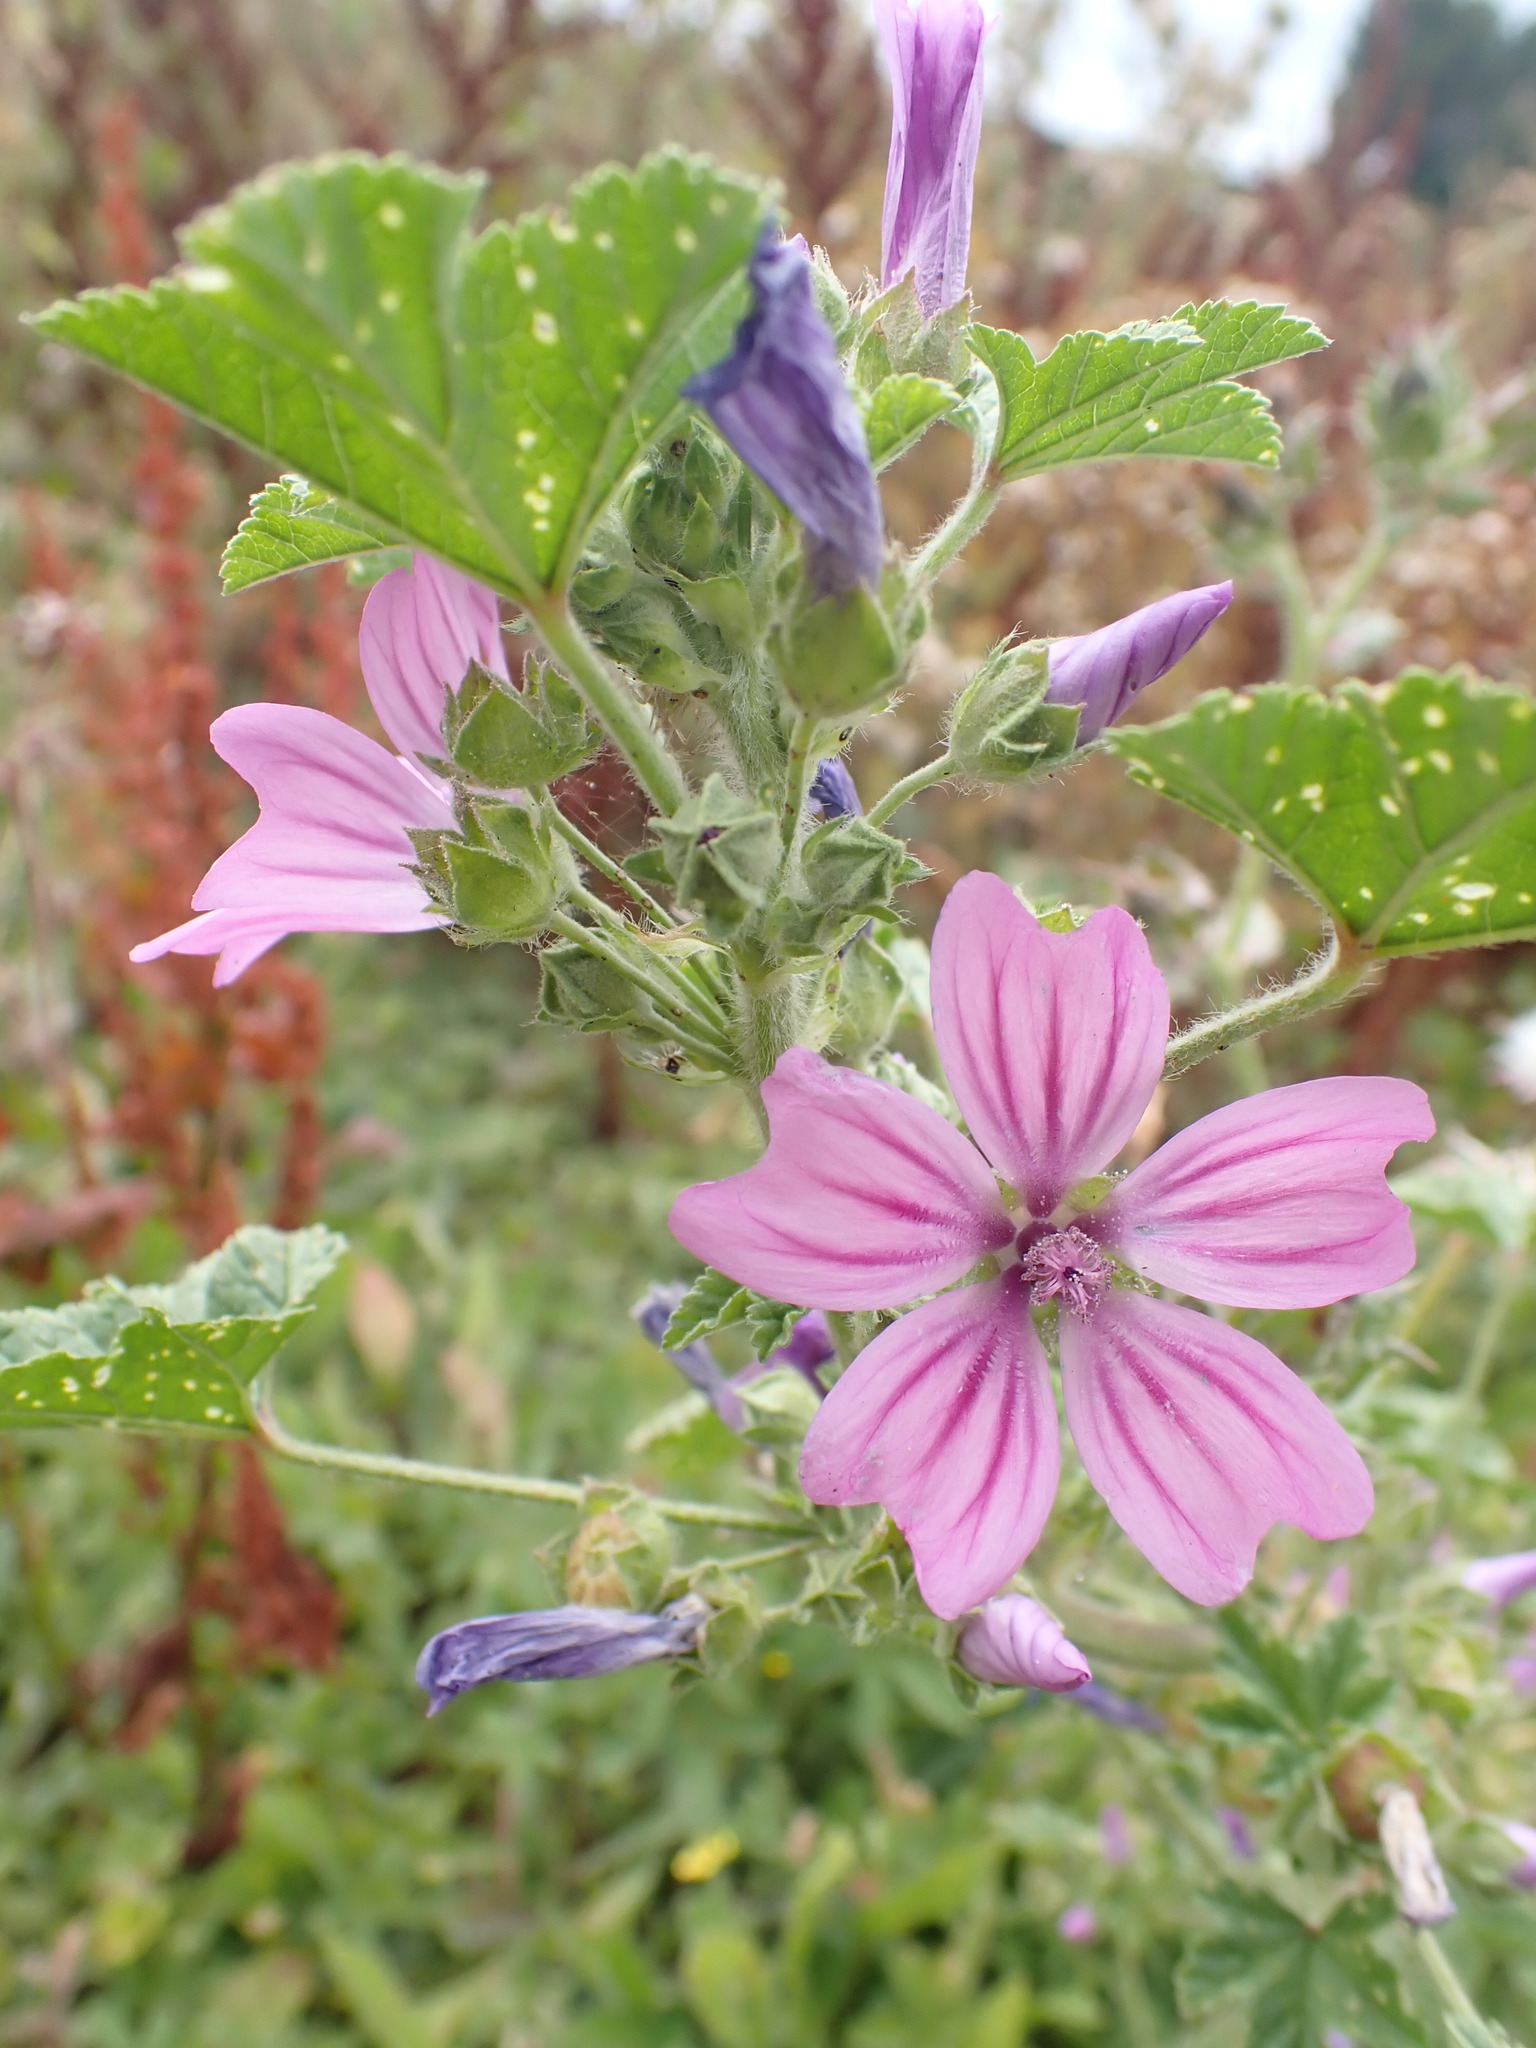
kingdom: Plantae
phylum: Tracheophyta
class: Magnoliopsida
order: Malvales
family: Malvaceae
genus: Malva
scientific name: Malva sylvestris
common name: Common mallow
